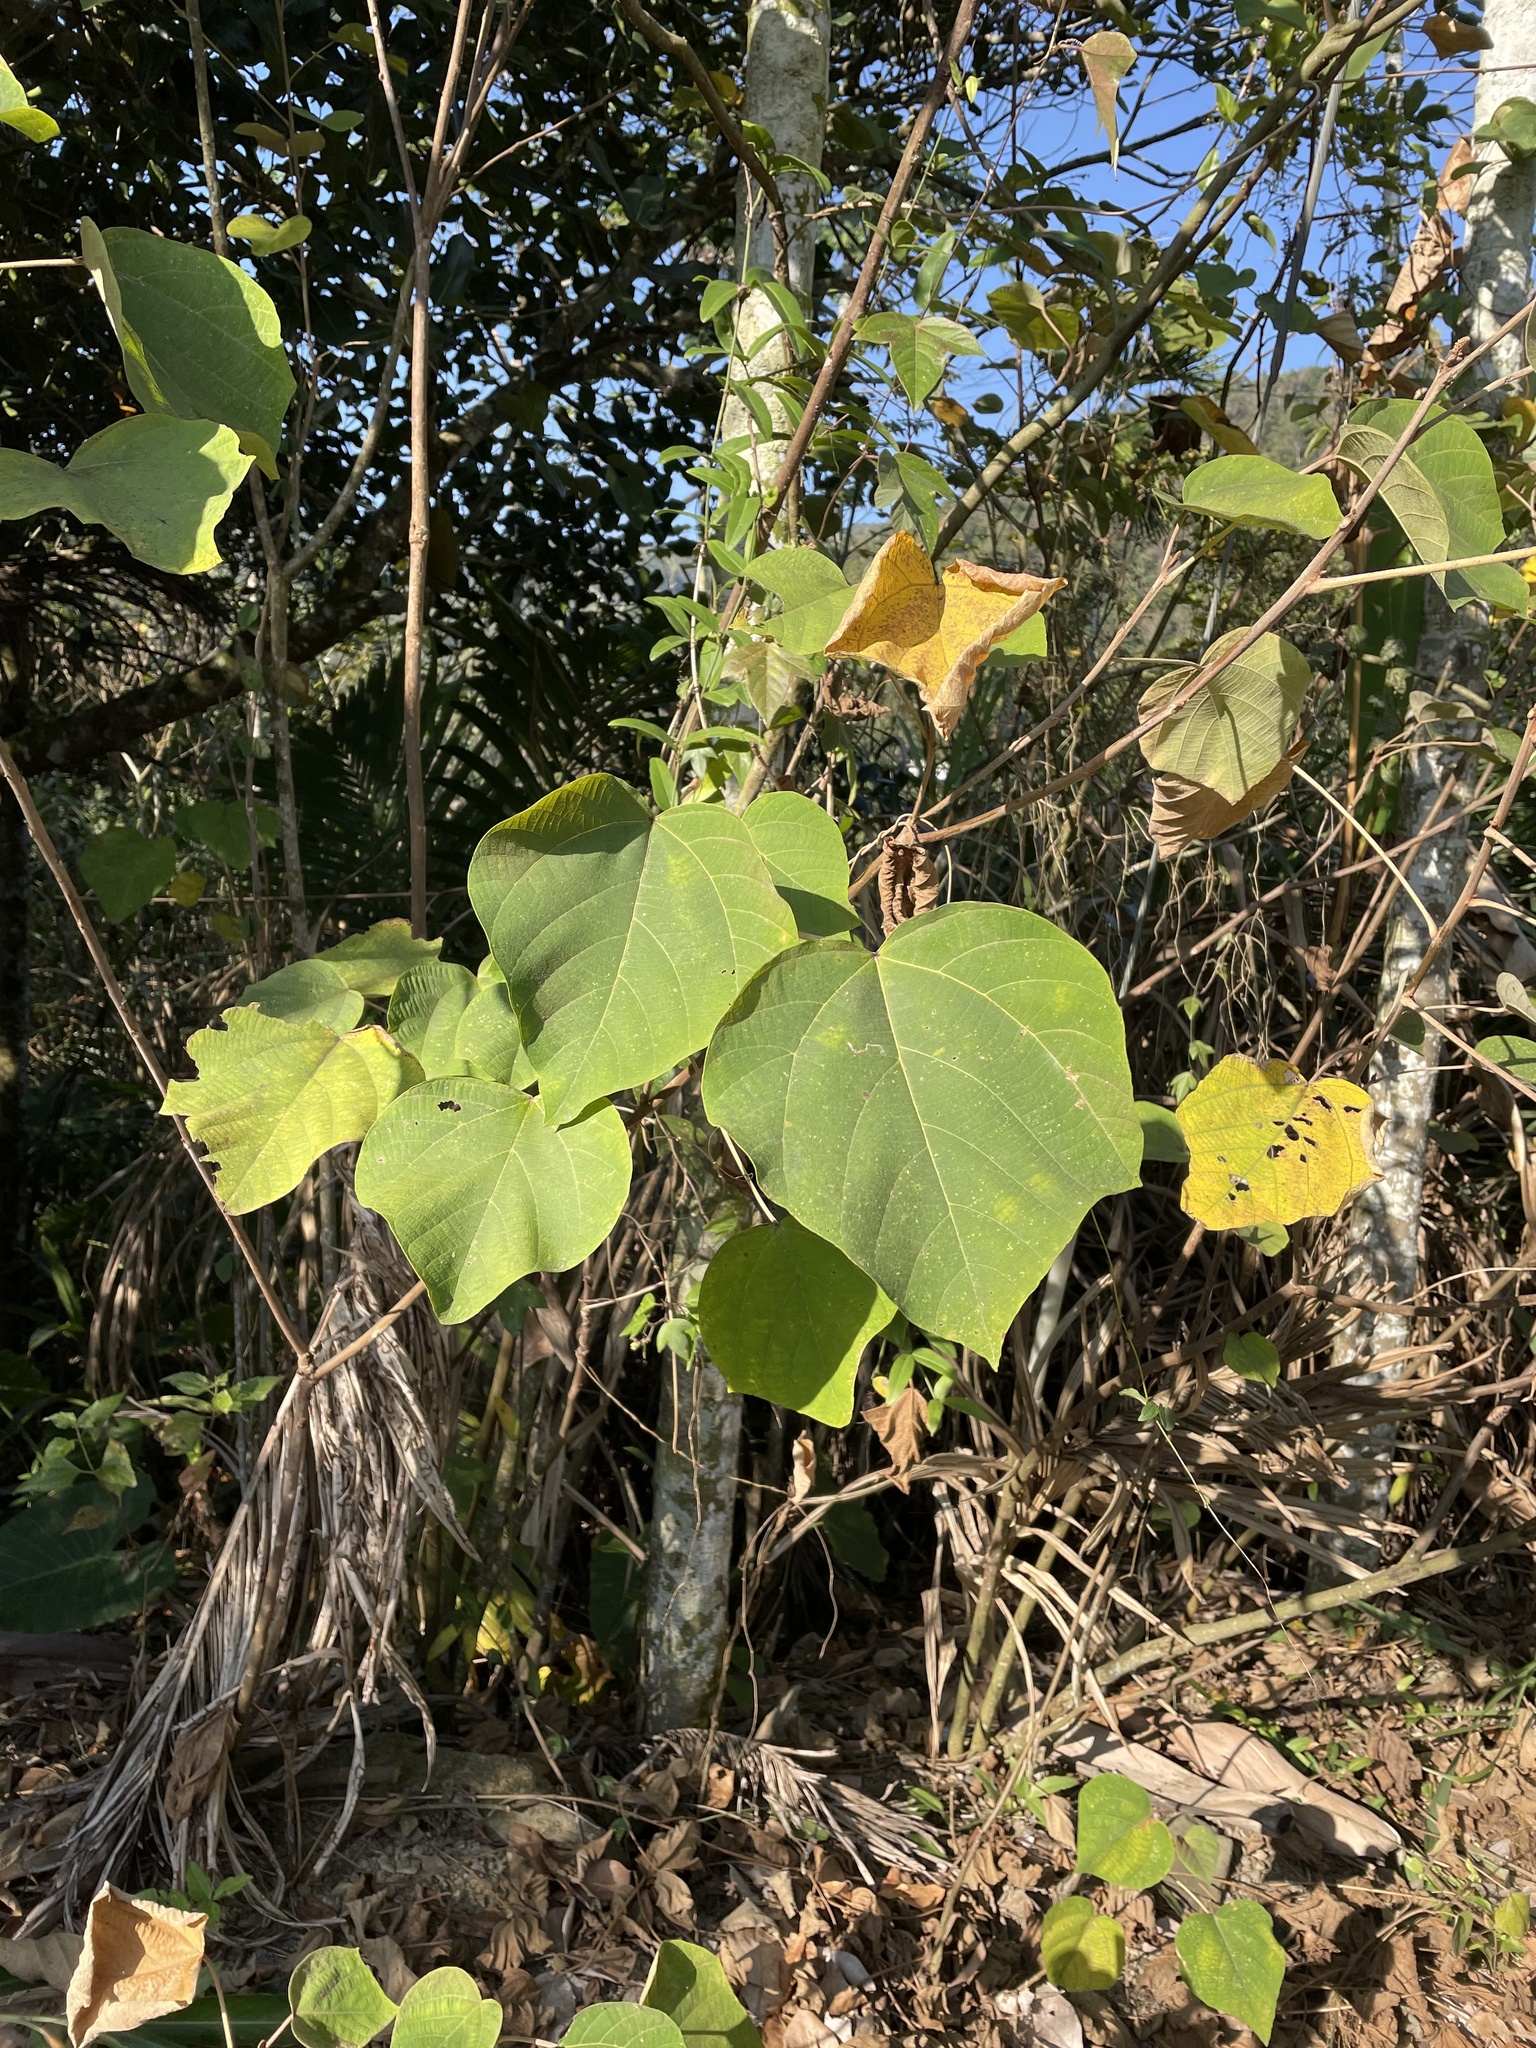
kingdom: Plantae
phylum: Tracheophyta
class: Magnoliopsida
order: Malpighiales
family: Euphorbiaceae
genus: Mallotus
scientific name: Mallotus japonicus
